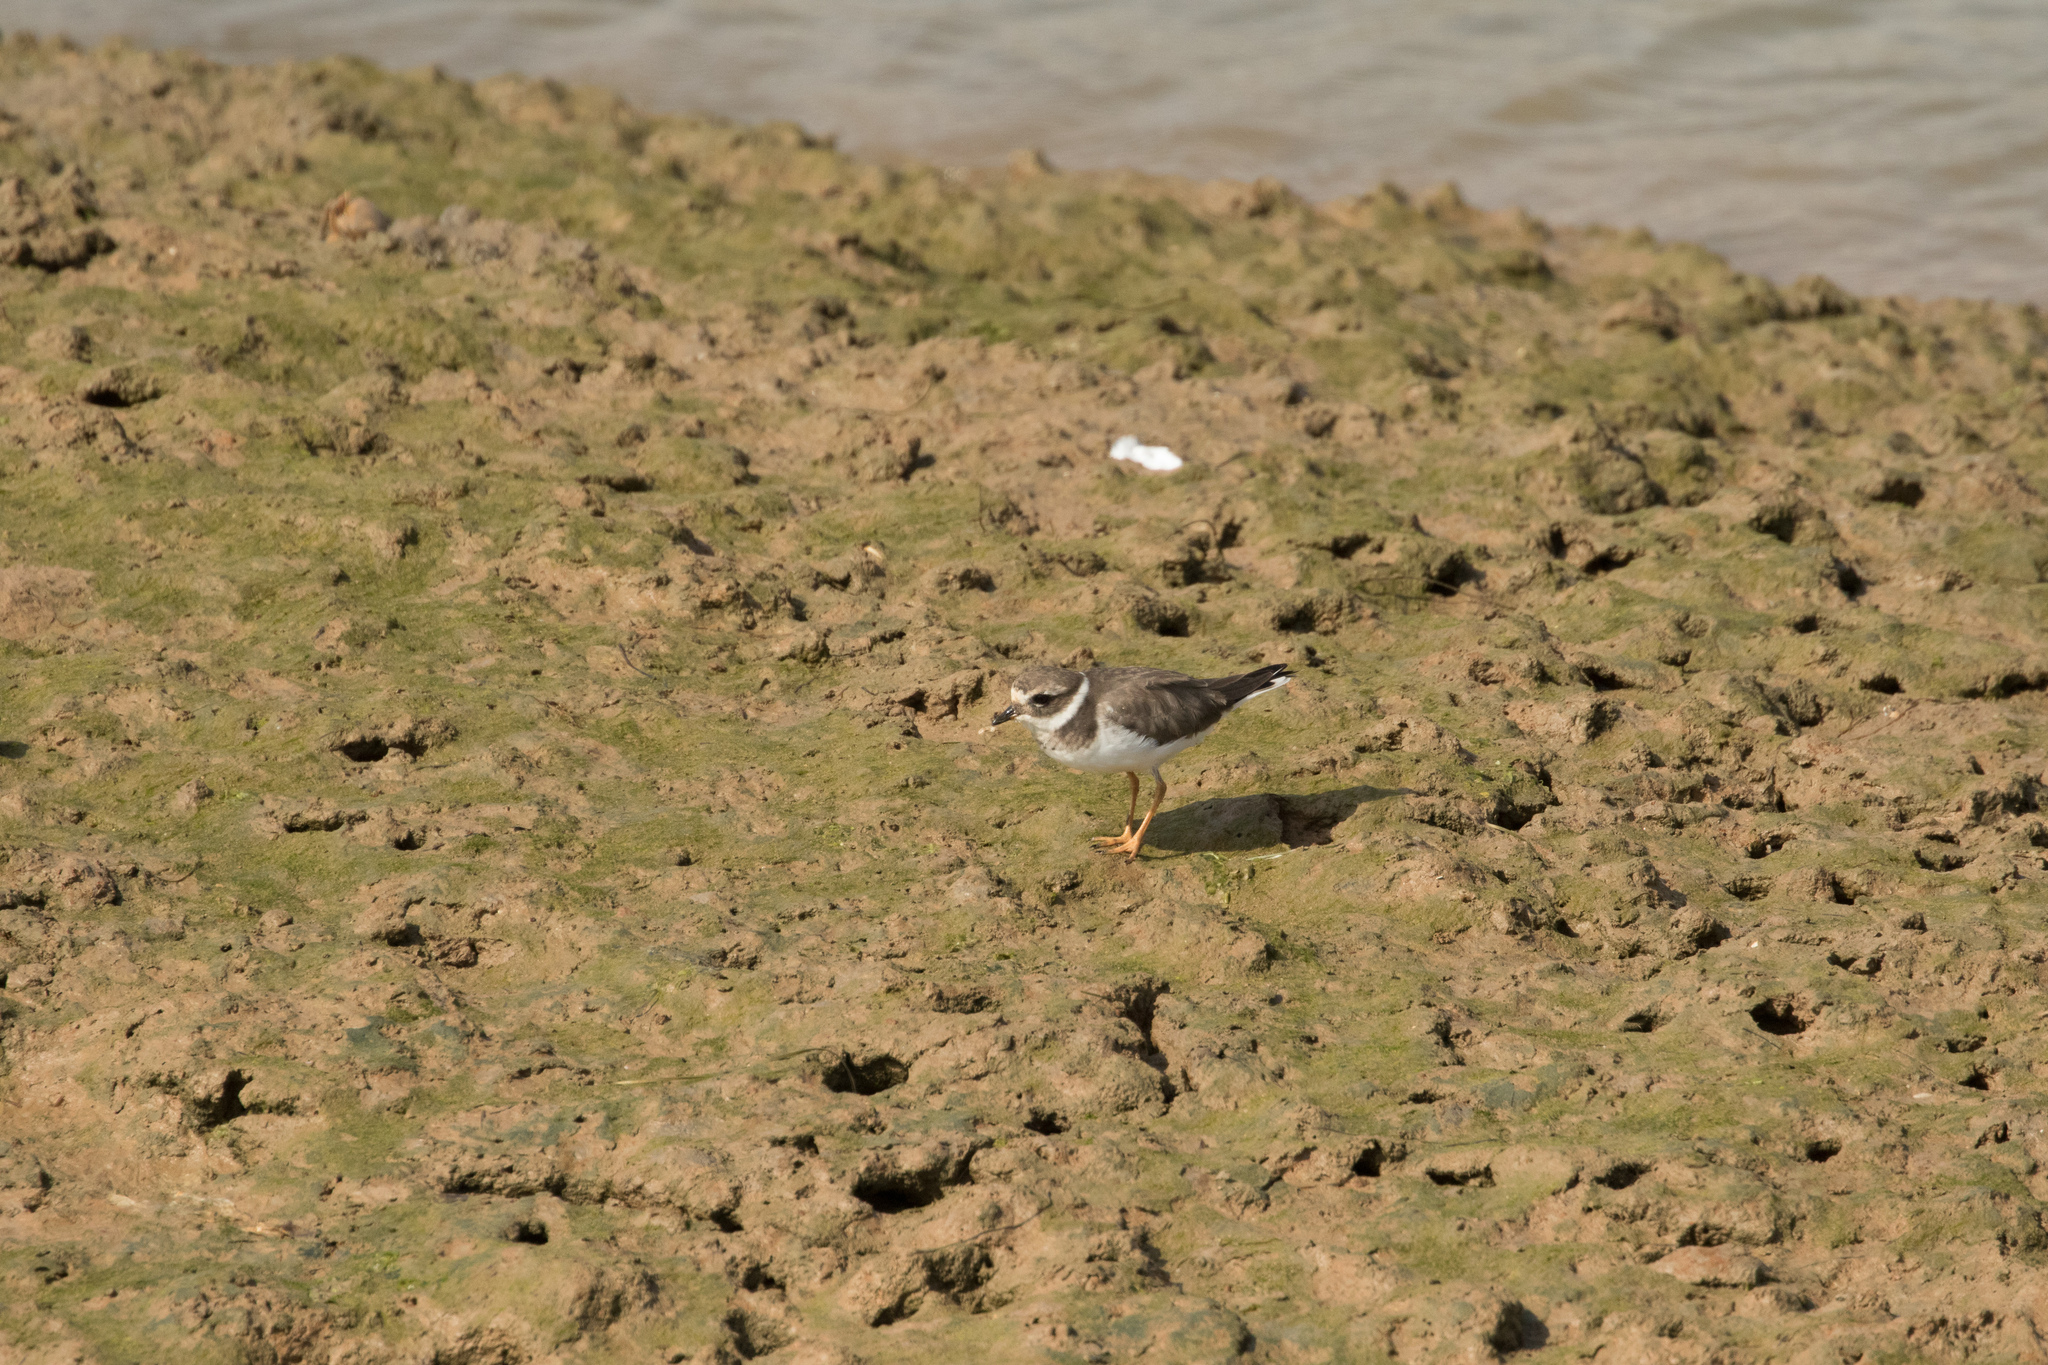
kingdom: Animalia
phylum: Chordata
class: Aves
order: Charadriiformes
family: Charadriidae
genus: Charadrius
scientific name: Charadrius hiaticula
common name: Common ringed plover
